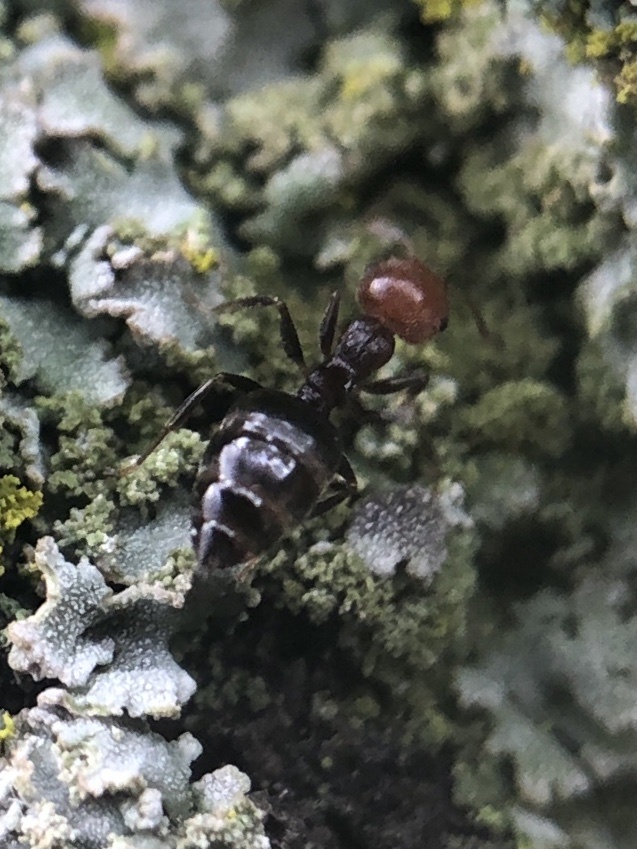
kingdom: Animalia
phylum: Arthropoda
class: Insecta
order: Hymenoptera
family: Formicidae
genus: Crematogaster
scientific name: Crematogaster scutellaris
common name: Fourmi du liège
